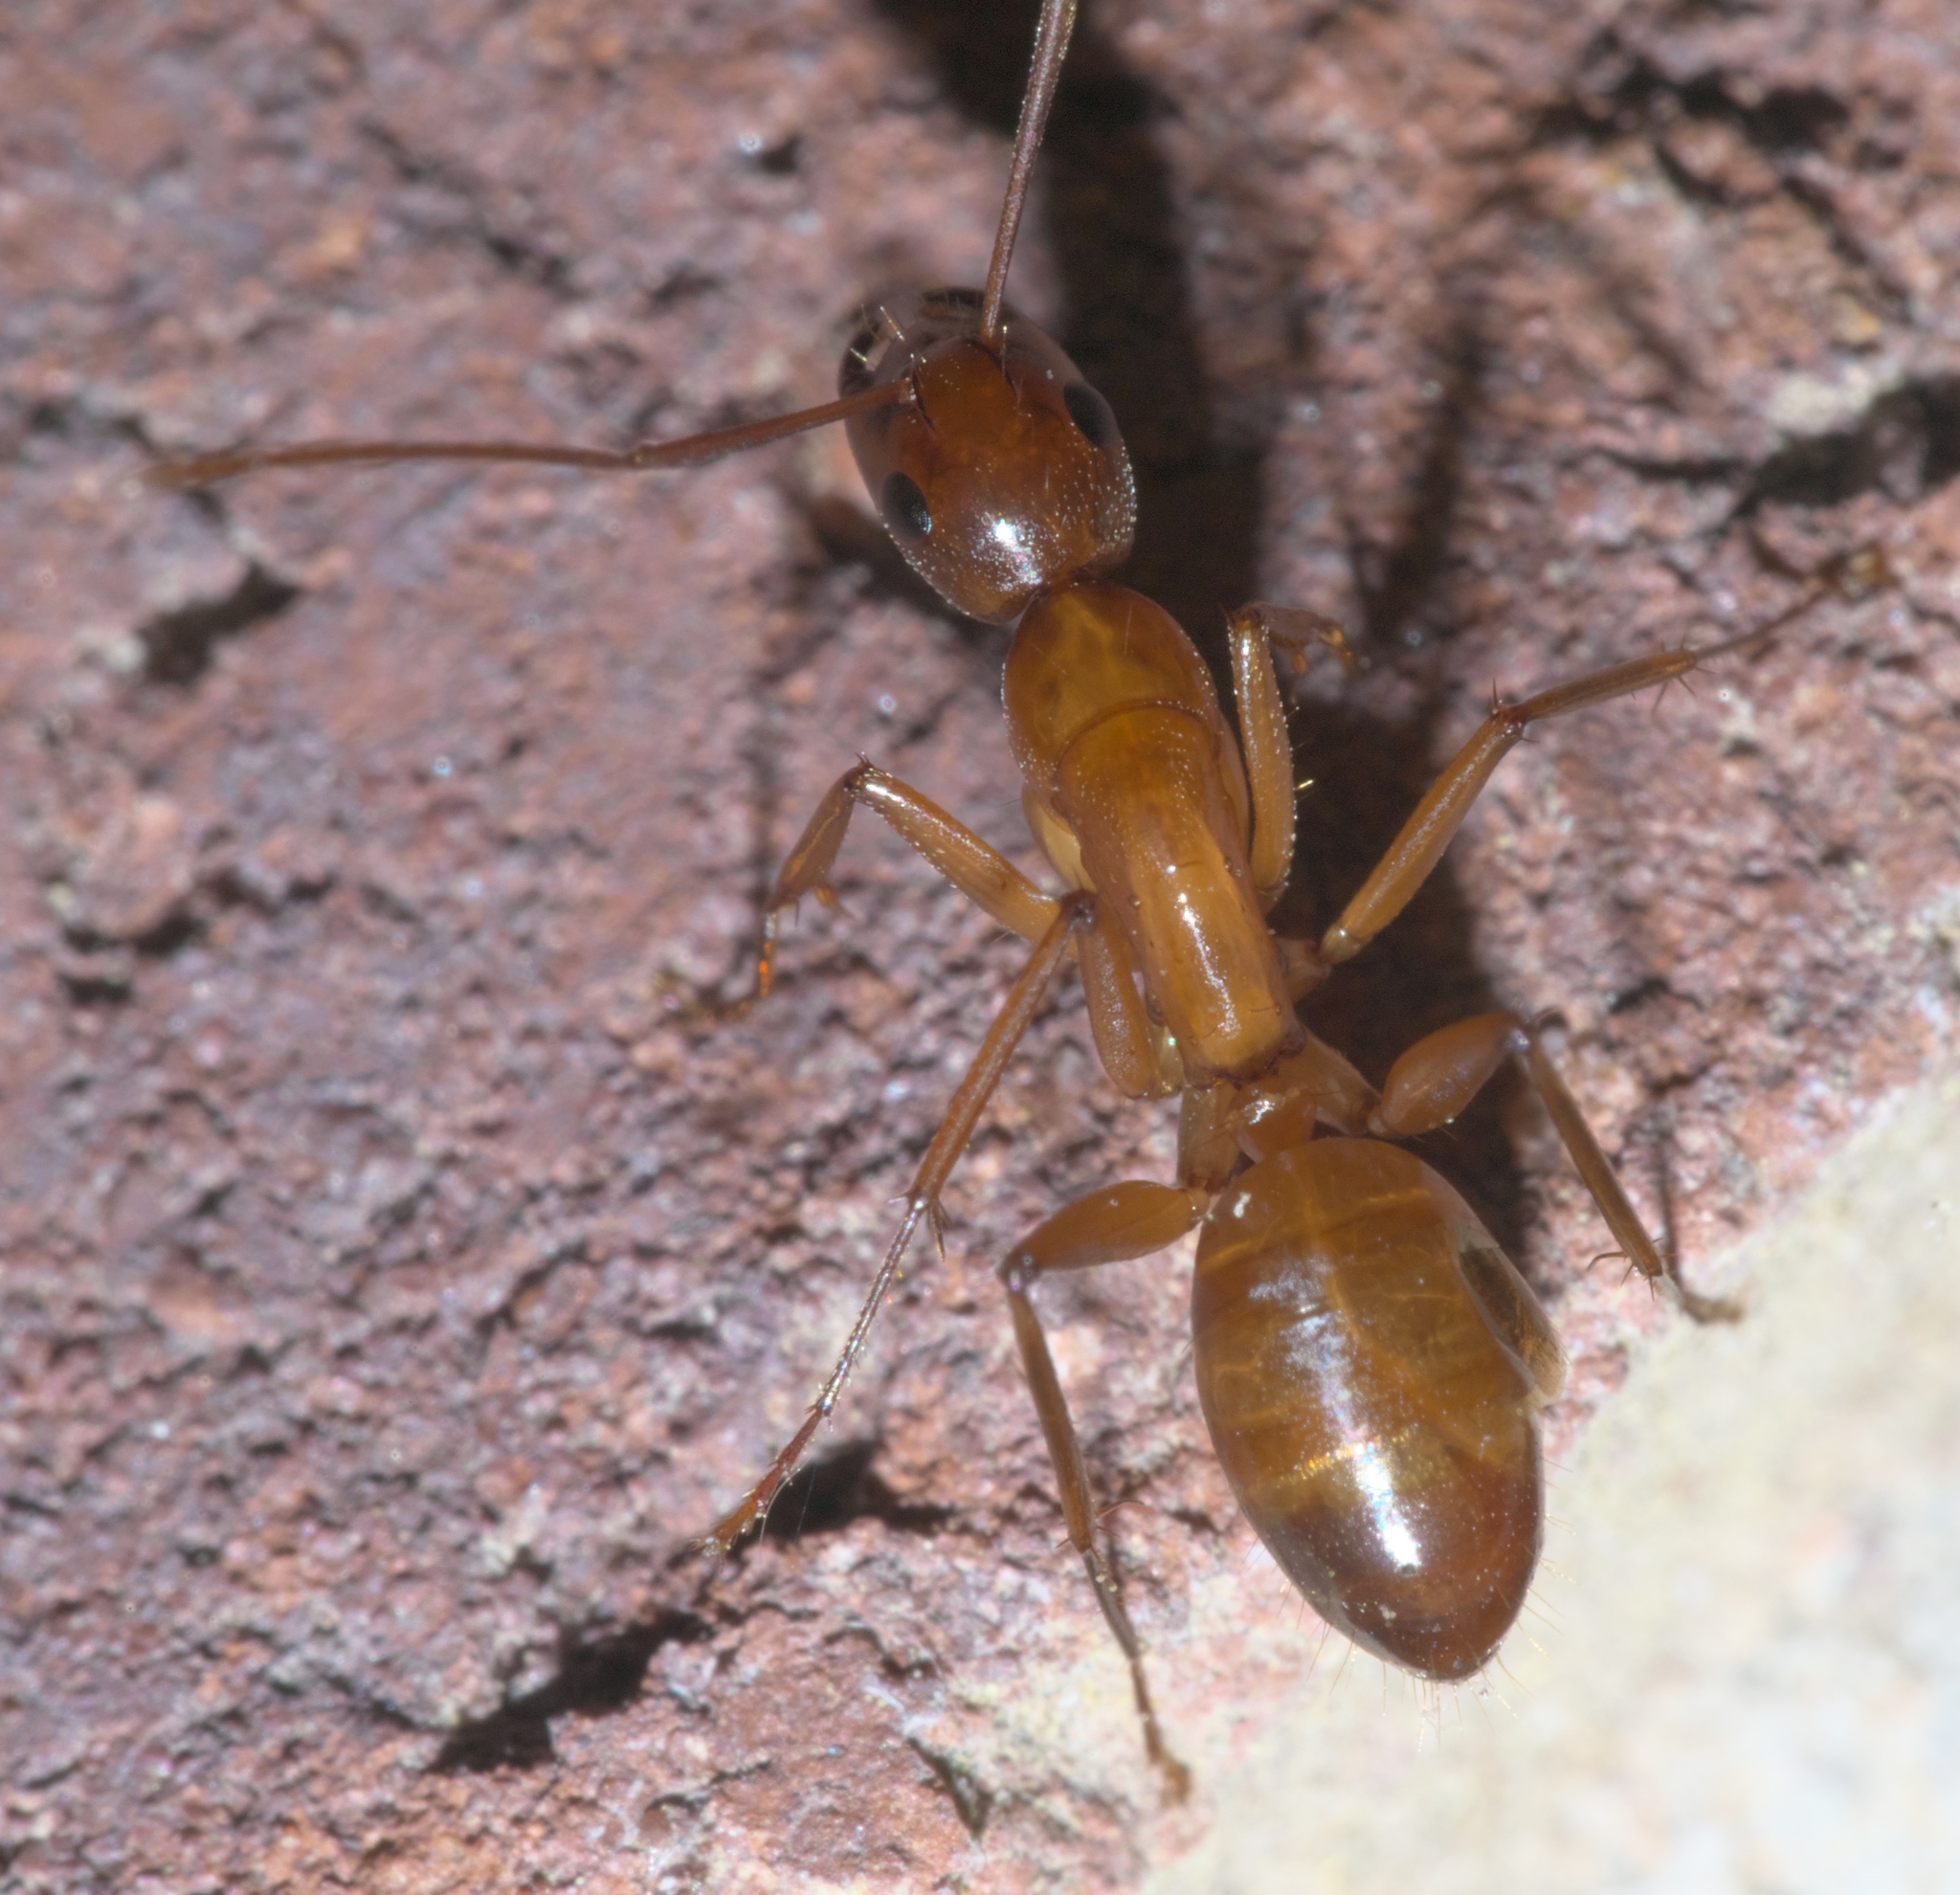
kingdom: Animalia
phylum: Arthropoda
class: Insecta
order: Hymenoptera
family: Formicidae
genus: Camponotus
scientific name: Camponotus castaneus
